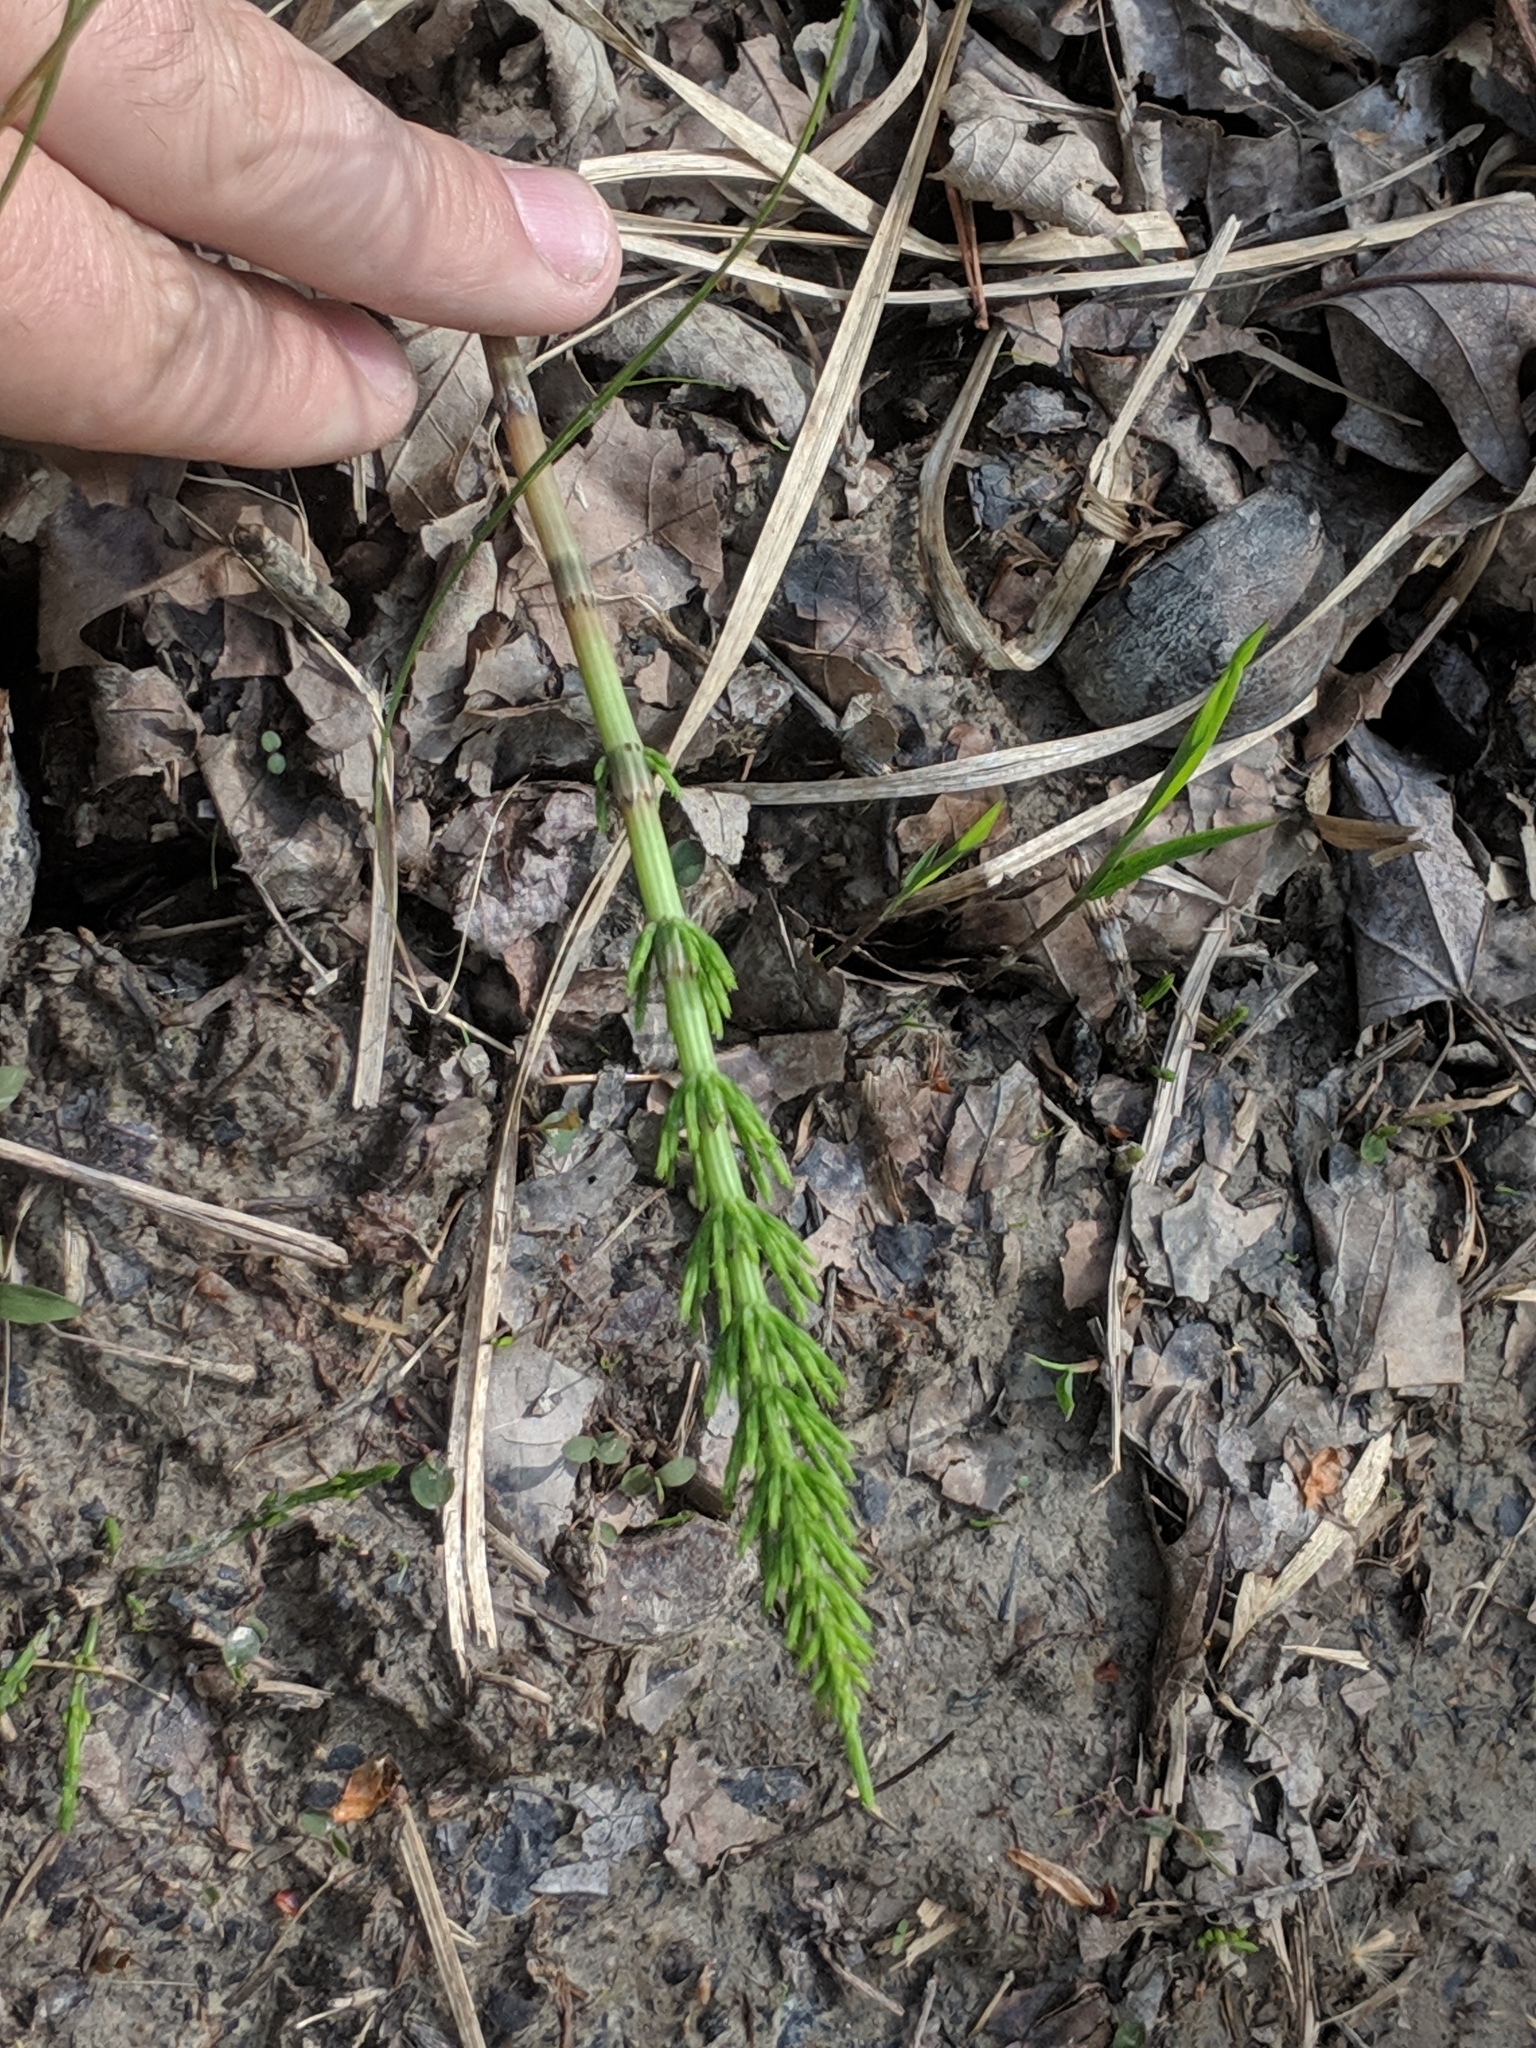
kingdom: Plantae
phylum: Tracheophyta
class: Polypodiopsida
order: Equisetales
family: Equisetaceae
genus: Equisetum
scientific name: Equisetum arvense
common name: Field horsetail
